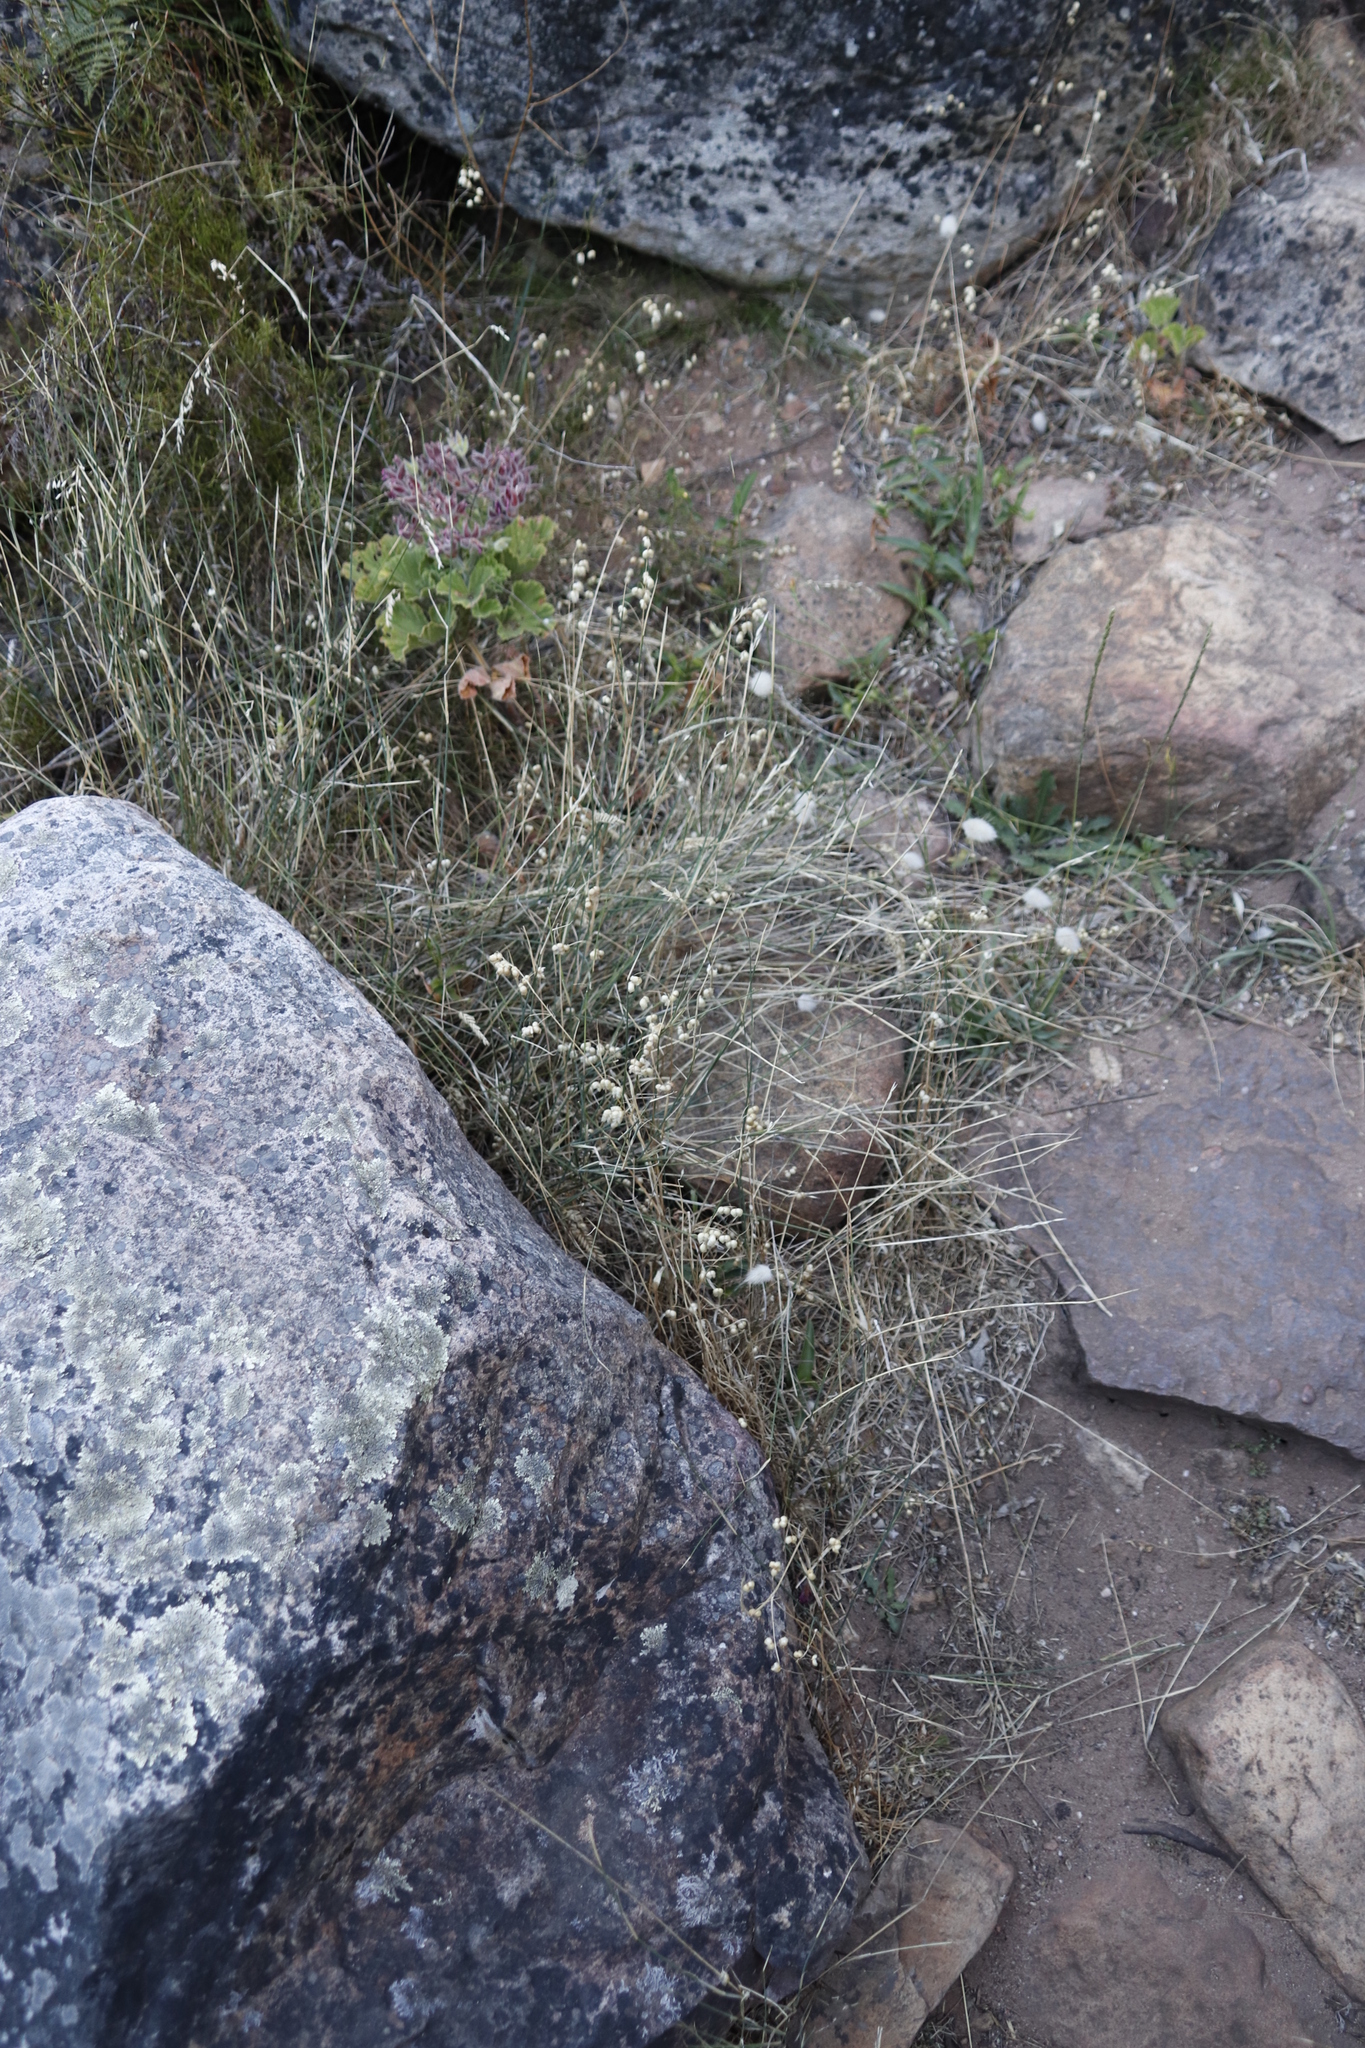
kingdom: Plantae
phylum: Tracheophyta
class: Liliopsida
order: Poales
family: Poaceae
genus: Lagurus
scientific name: Lagurus ovatus
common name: Hare's-tail
